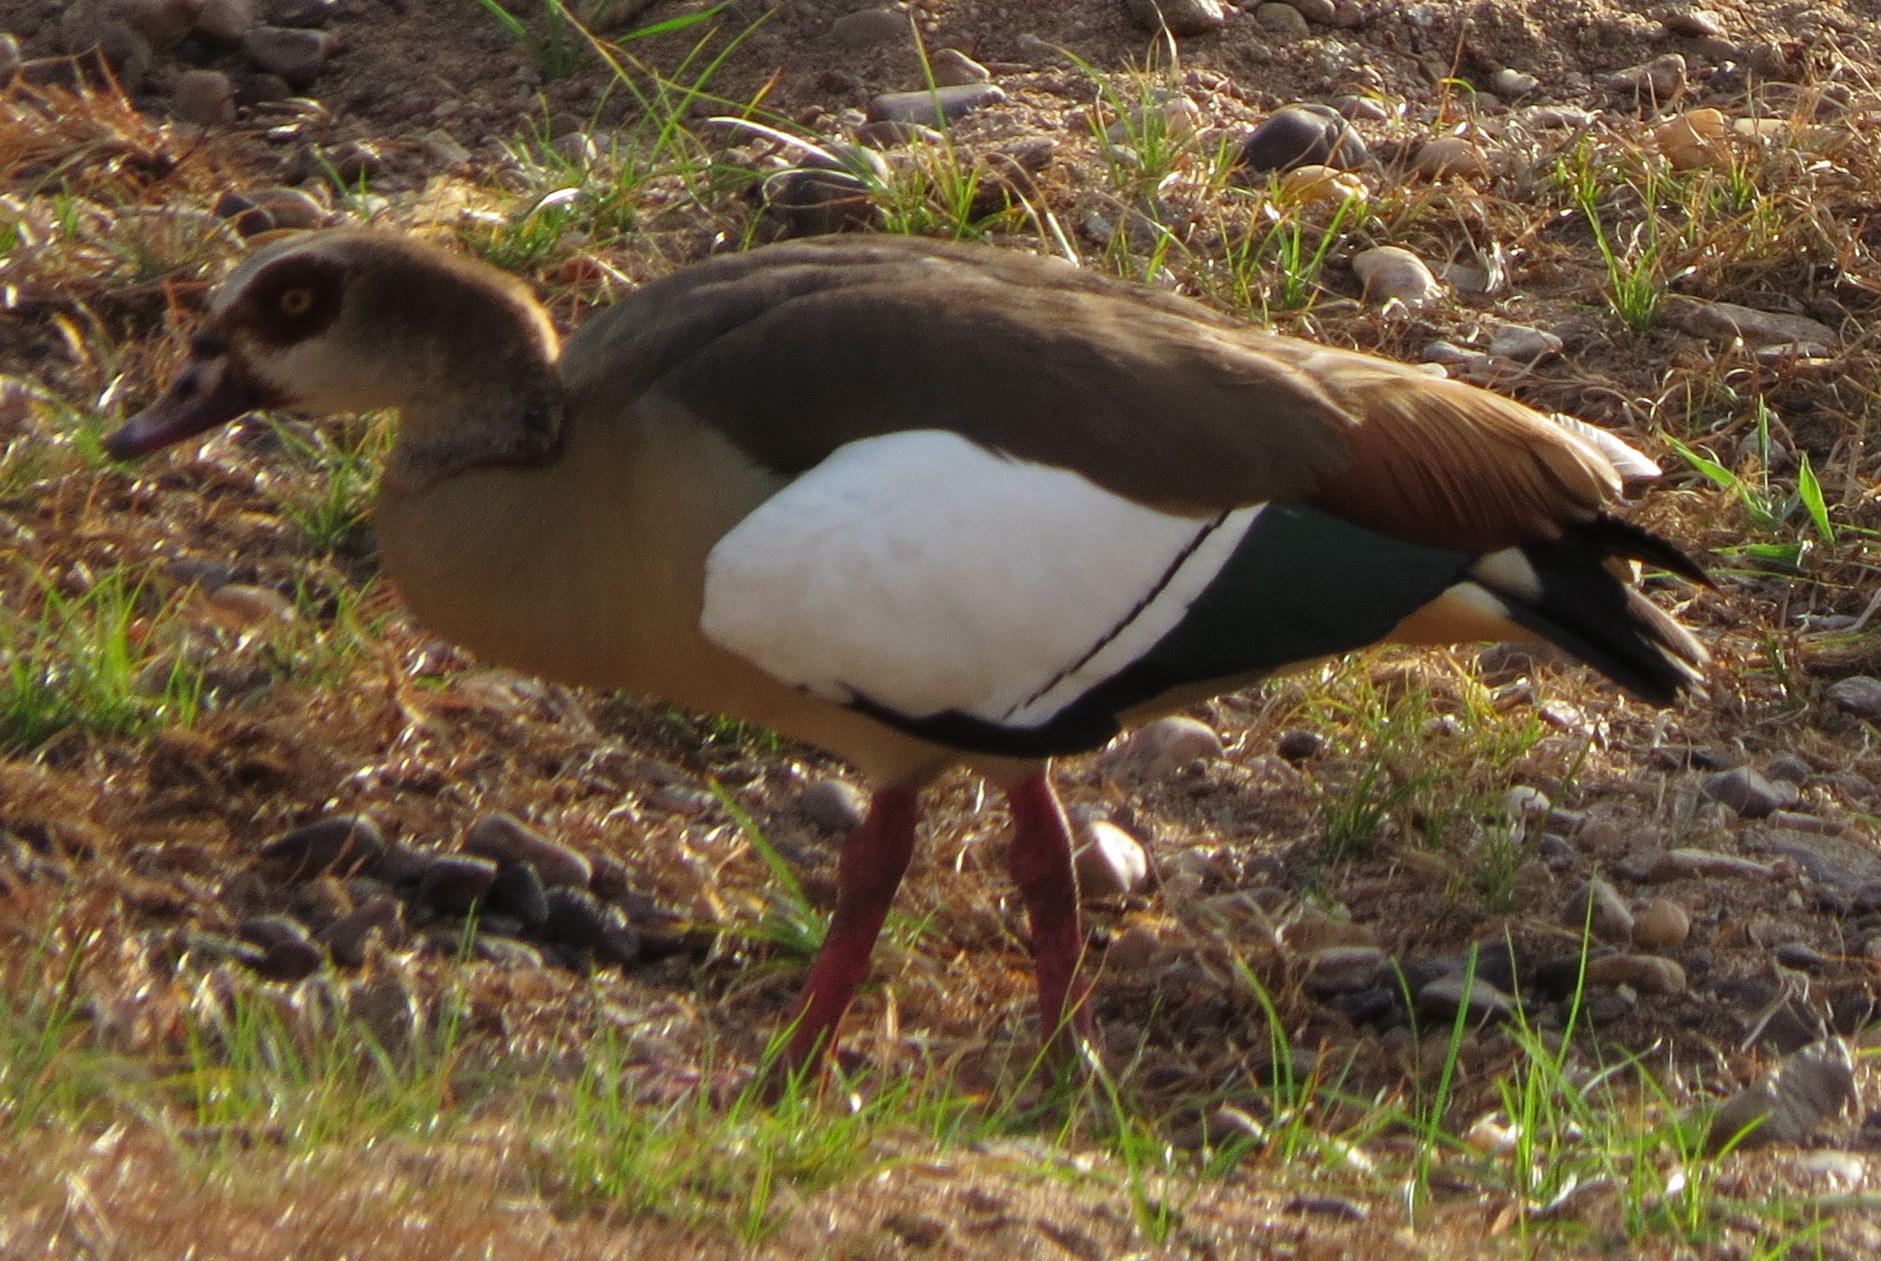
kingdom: Animalia
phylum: Chordata
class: Aves
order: Anseriformes
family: Anatidae
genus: Alopochen
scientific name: Alopochen aegyptiaca
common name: Egyptian goose
